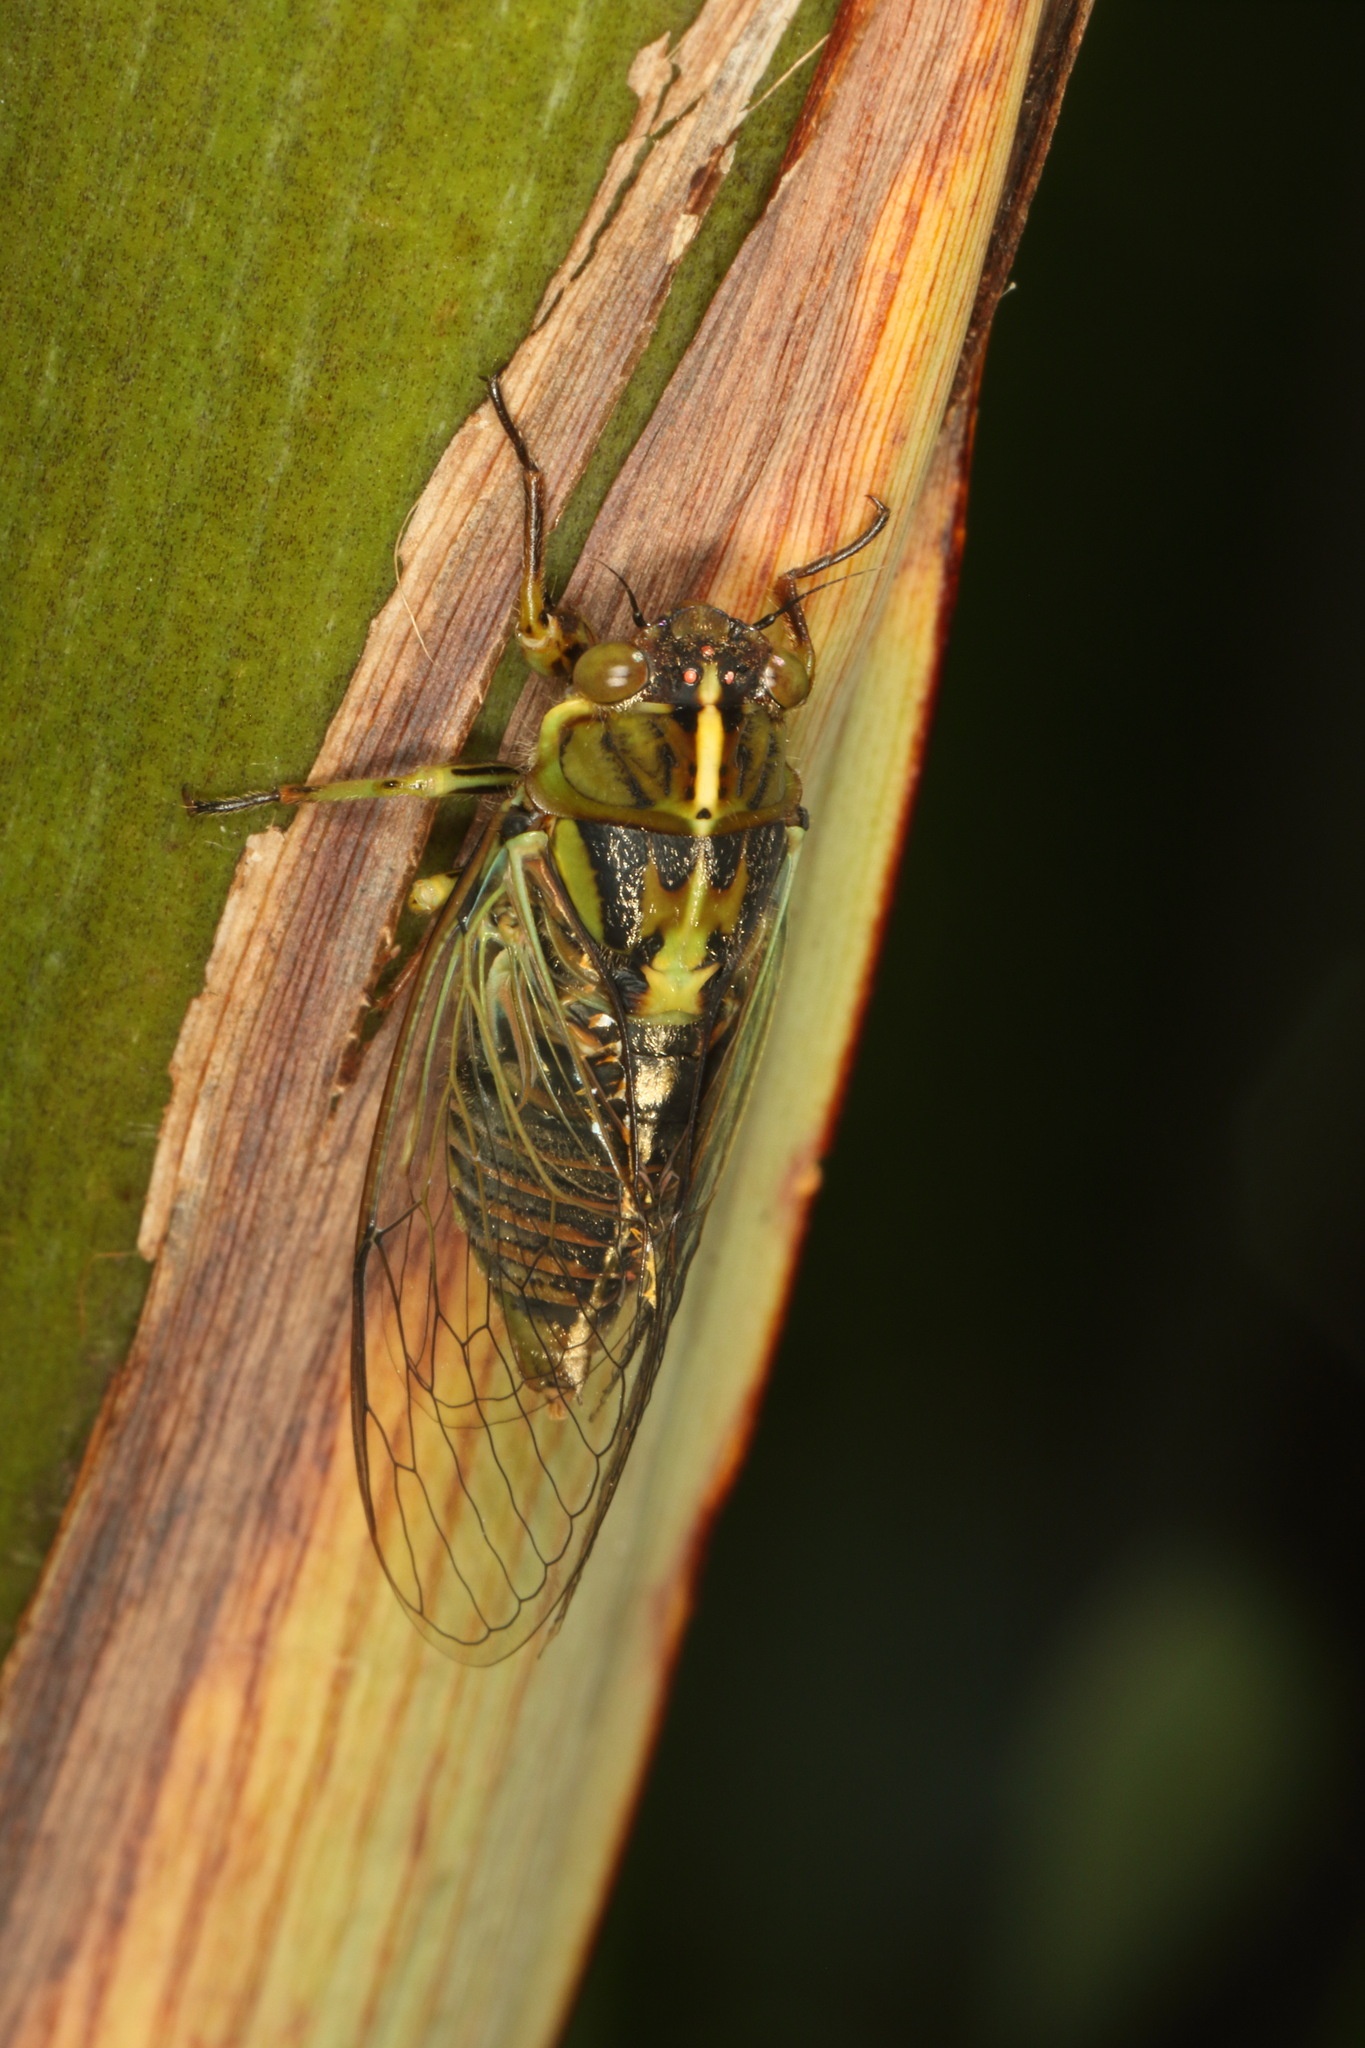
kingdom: Animalia
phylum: Arthropoda
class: Insecta
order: Hemiptera
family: Cicadidae
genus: Kikihia
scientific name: Kikihia muta
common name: Variable cicada
